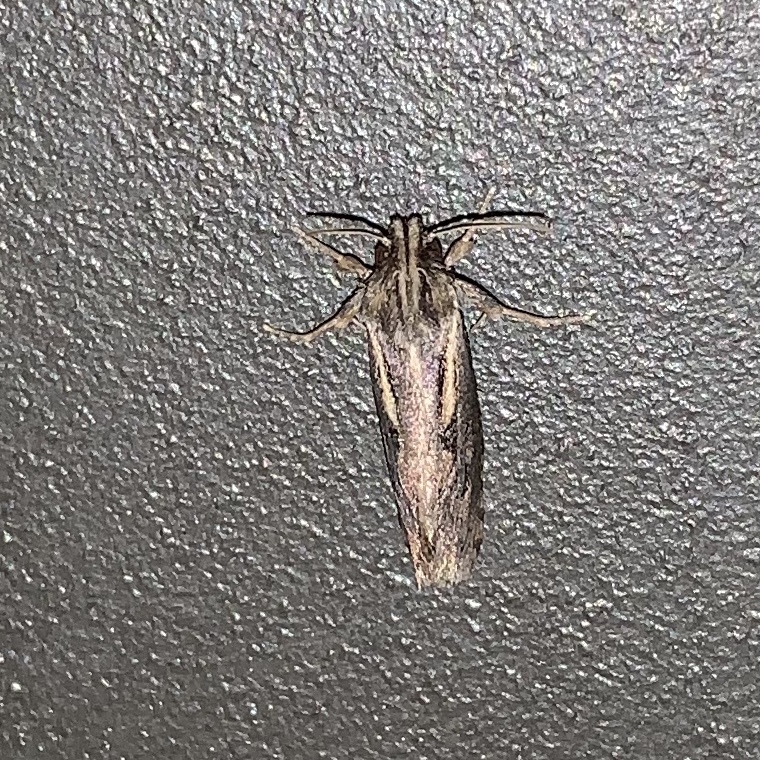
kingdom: Animalia
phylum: Arthropoda
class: Insecta
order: Lepidoptera
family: Tineidae
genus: Acrolophus
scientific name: Acrolophus popeanella
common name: Clemens' grass tubeworm moth
